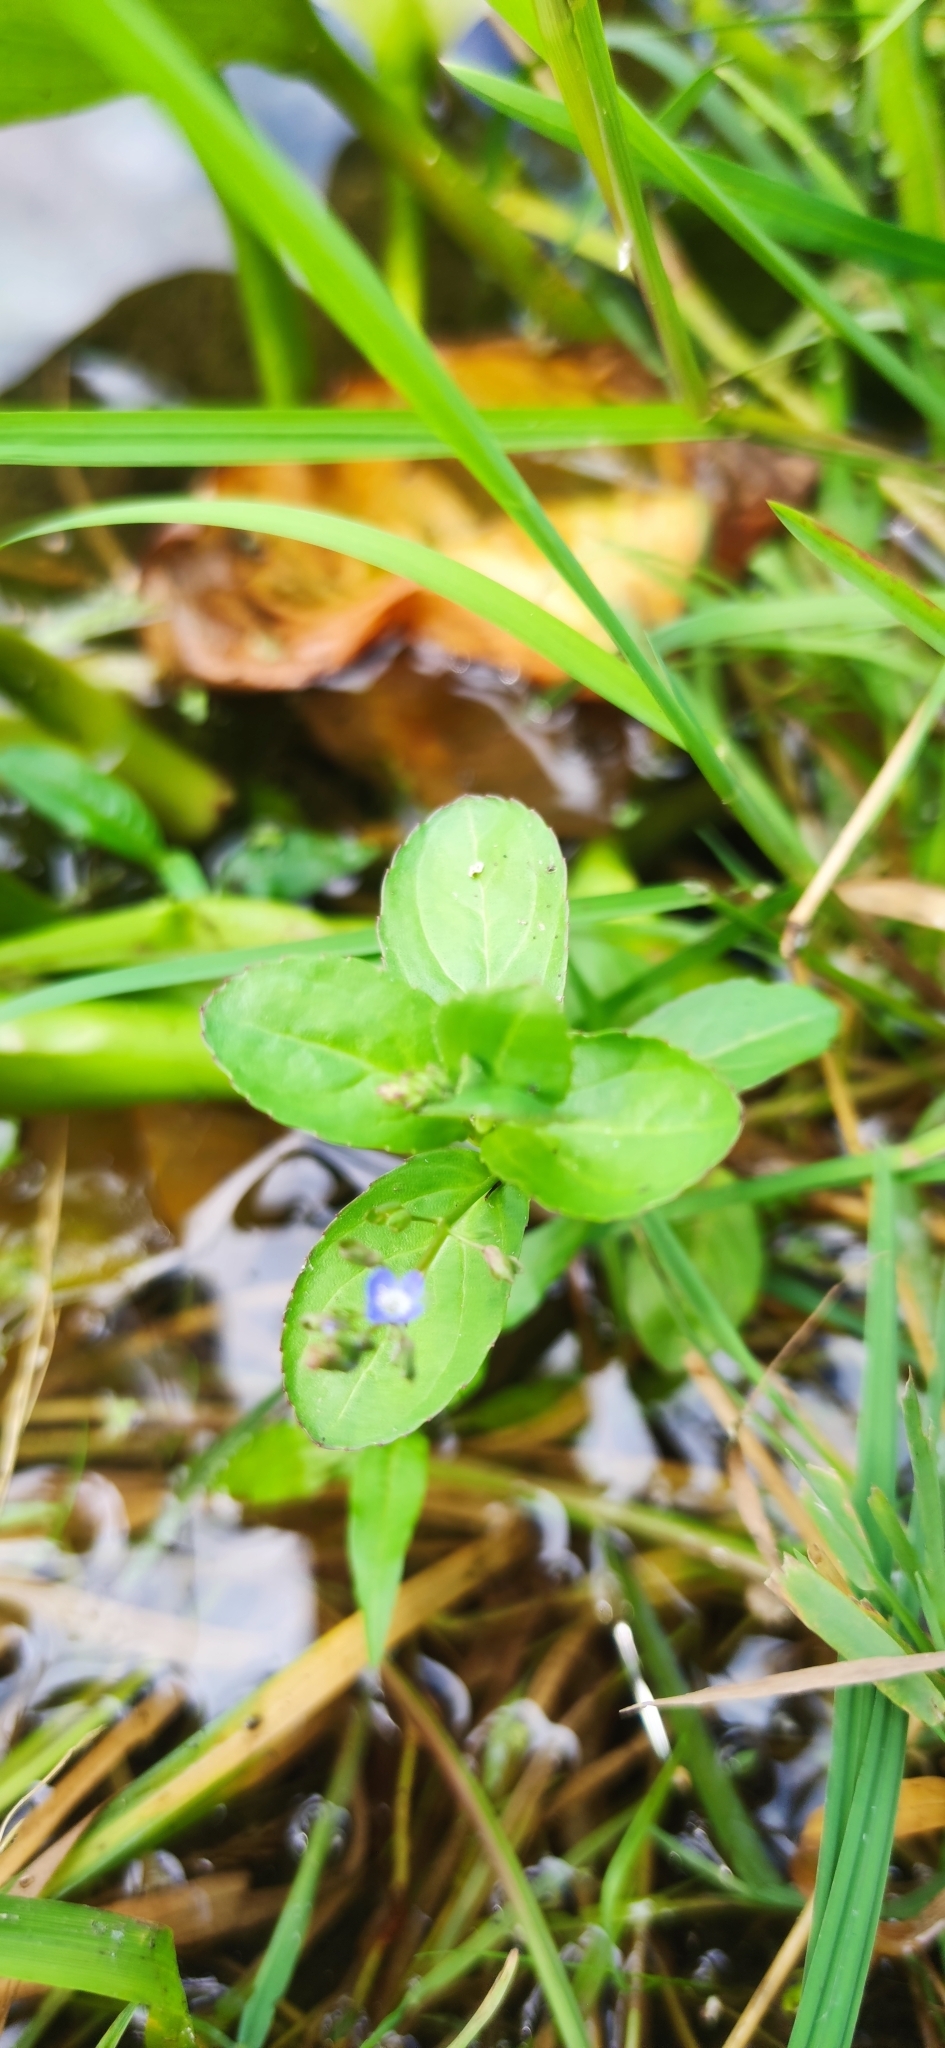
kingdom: Plantae
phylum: Tracheophyta
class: Magnoliopsida
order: Lamiales
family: Plantaginaceae
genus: Veronica
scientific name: Veronica beccabunga
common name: Brooklime
